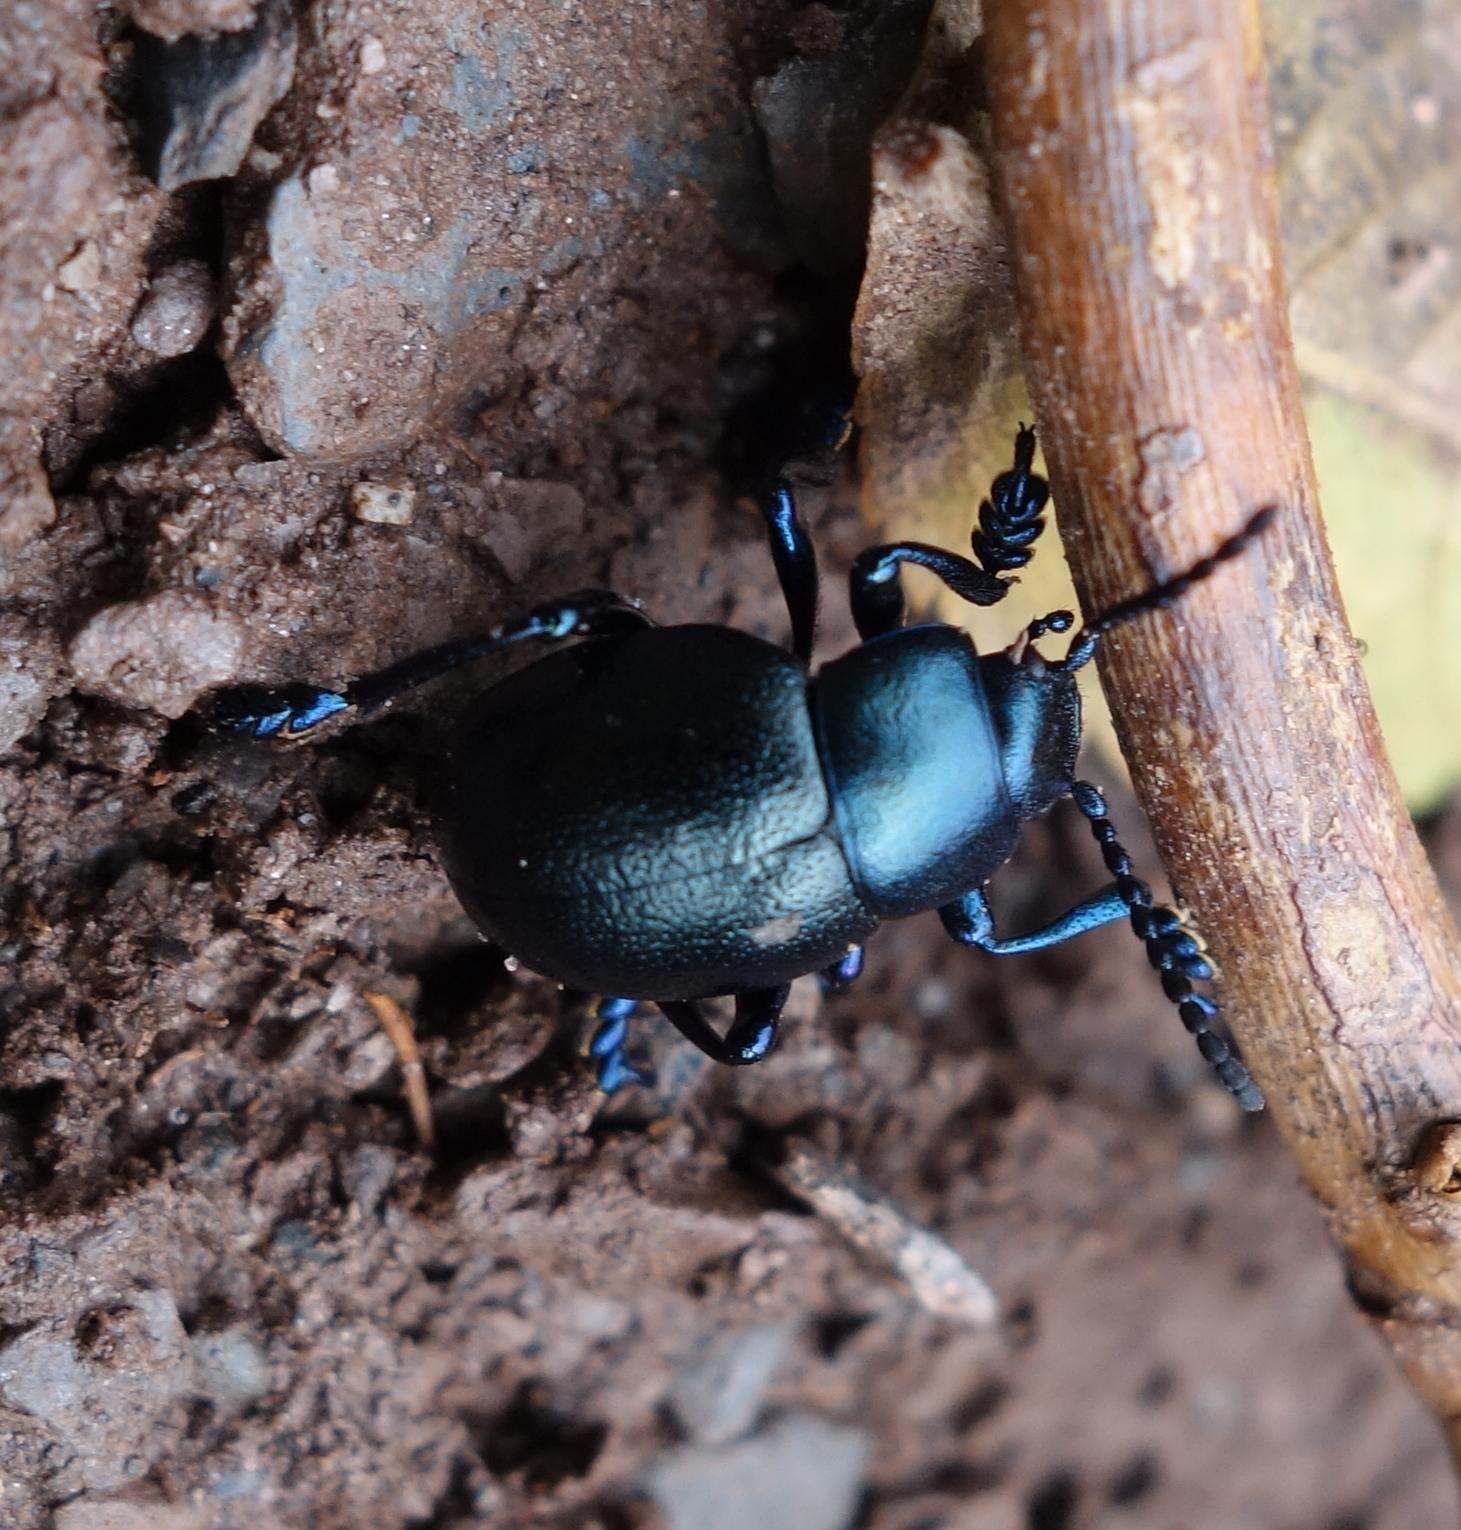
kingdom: Animalia
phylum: Arthropoda
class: Insecta
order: Coleoptera
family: Chrysomelidae
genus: Timarcha
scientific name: Timarcha goettingensis
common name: Small bloody-nosed beetle
